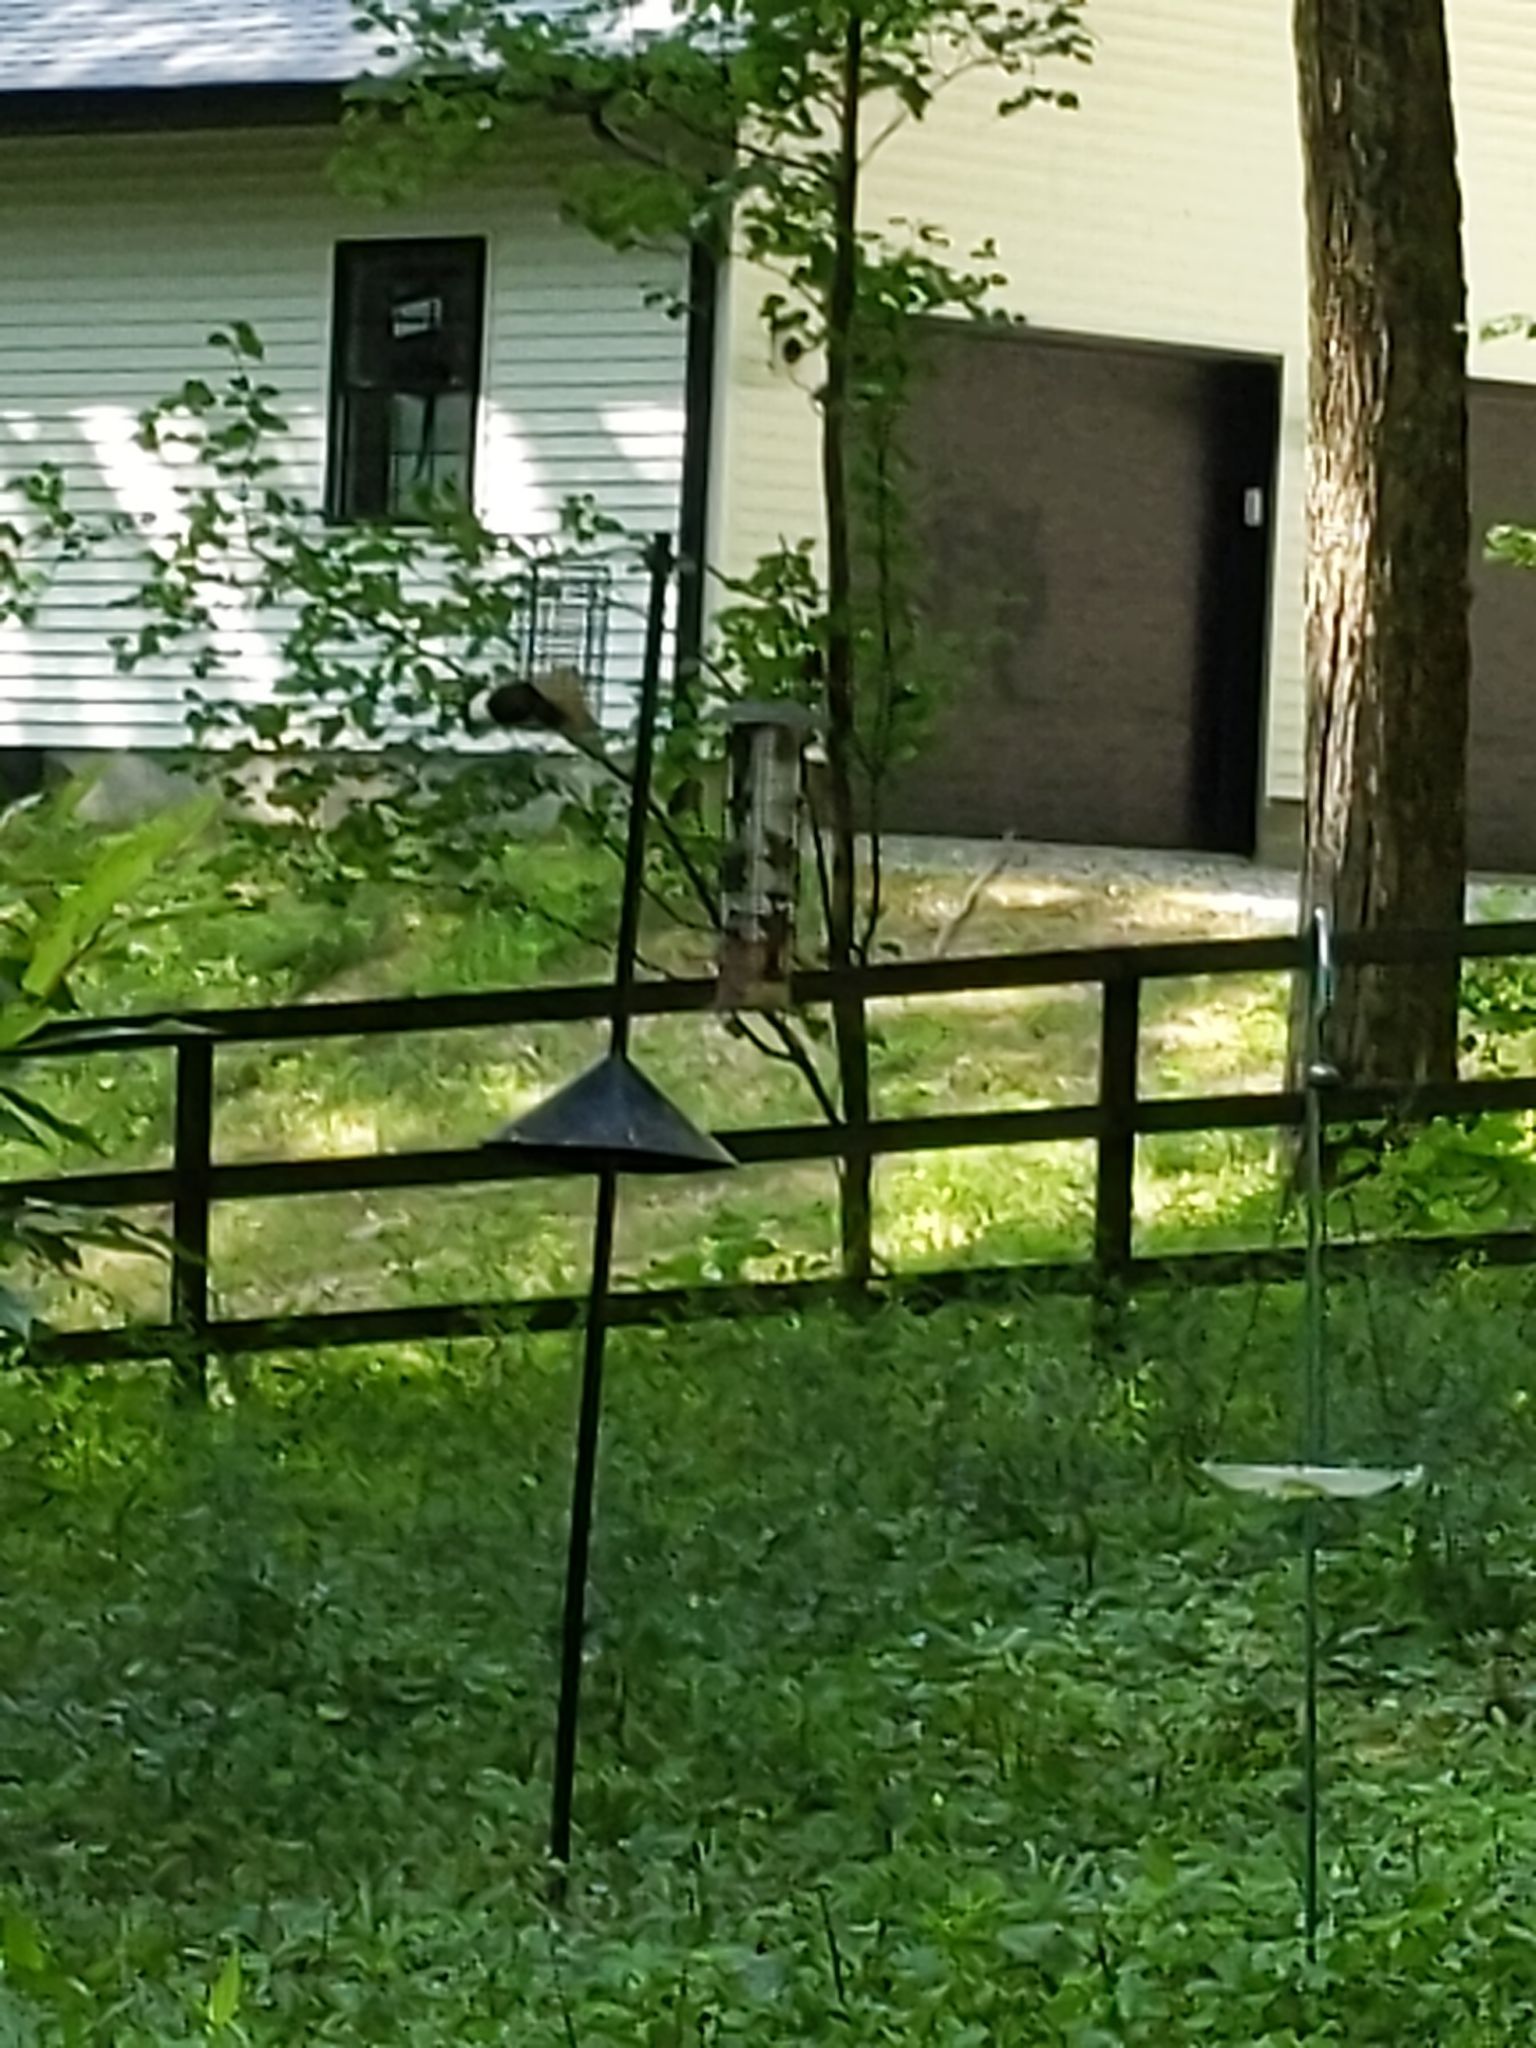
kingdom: Animalia
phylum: Chordata
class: Aves
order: Piciformes
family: Picidae
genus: Melanerpes
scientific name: Melanerpes erythrocephalus
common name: Red-headed woodpecker
